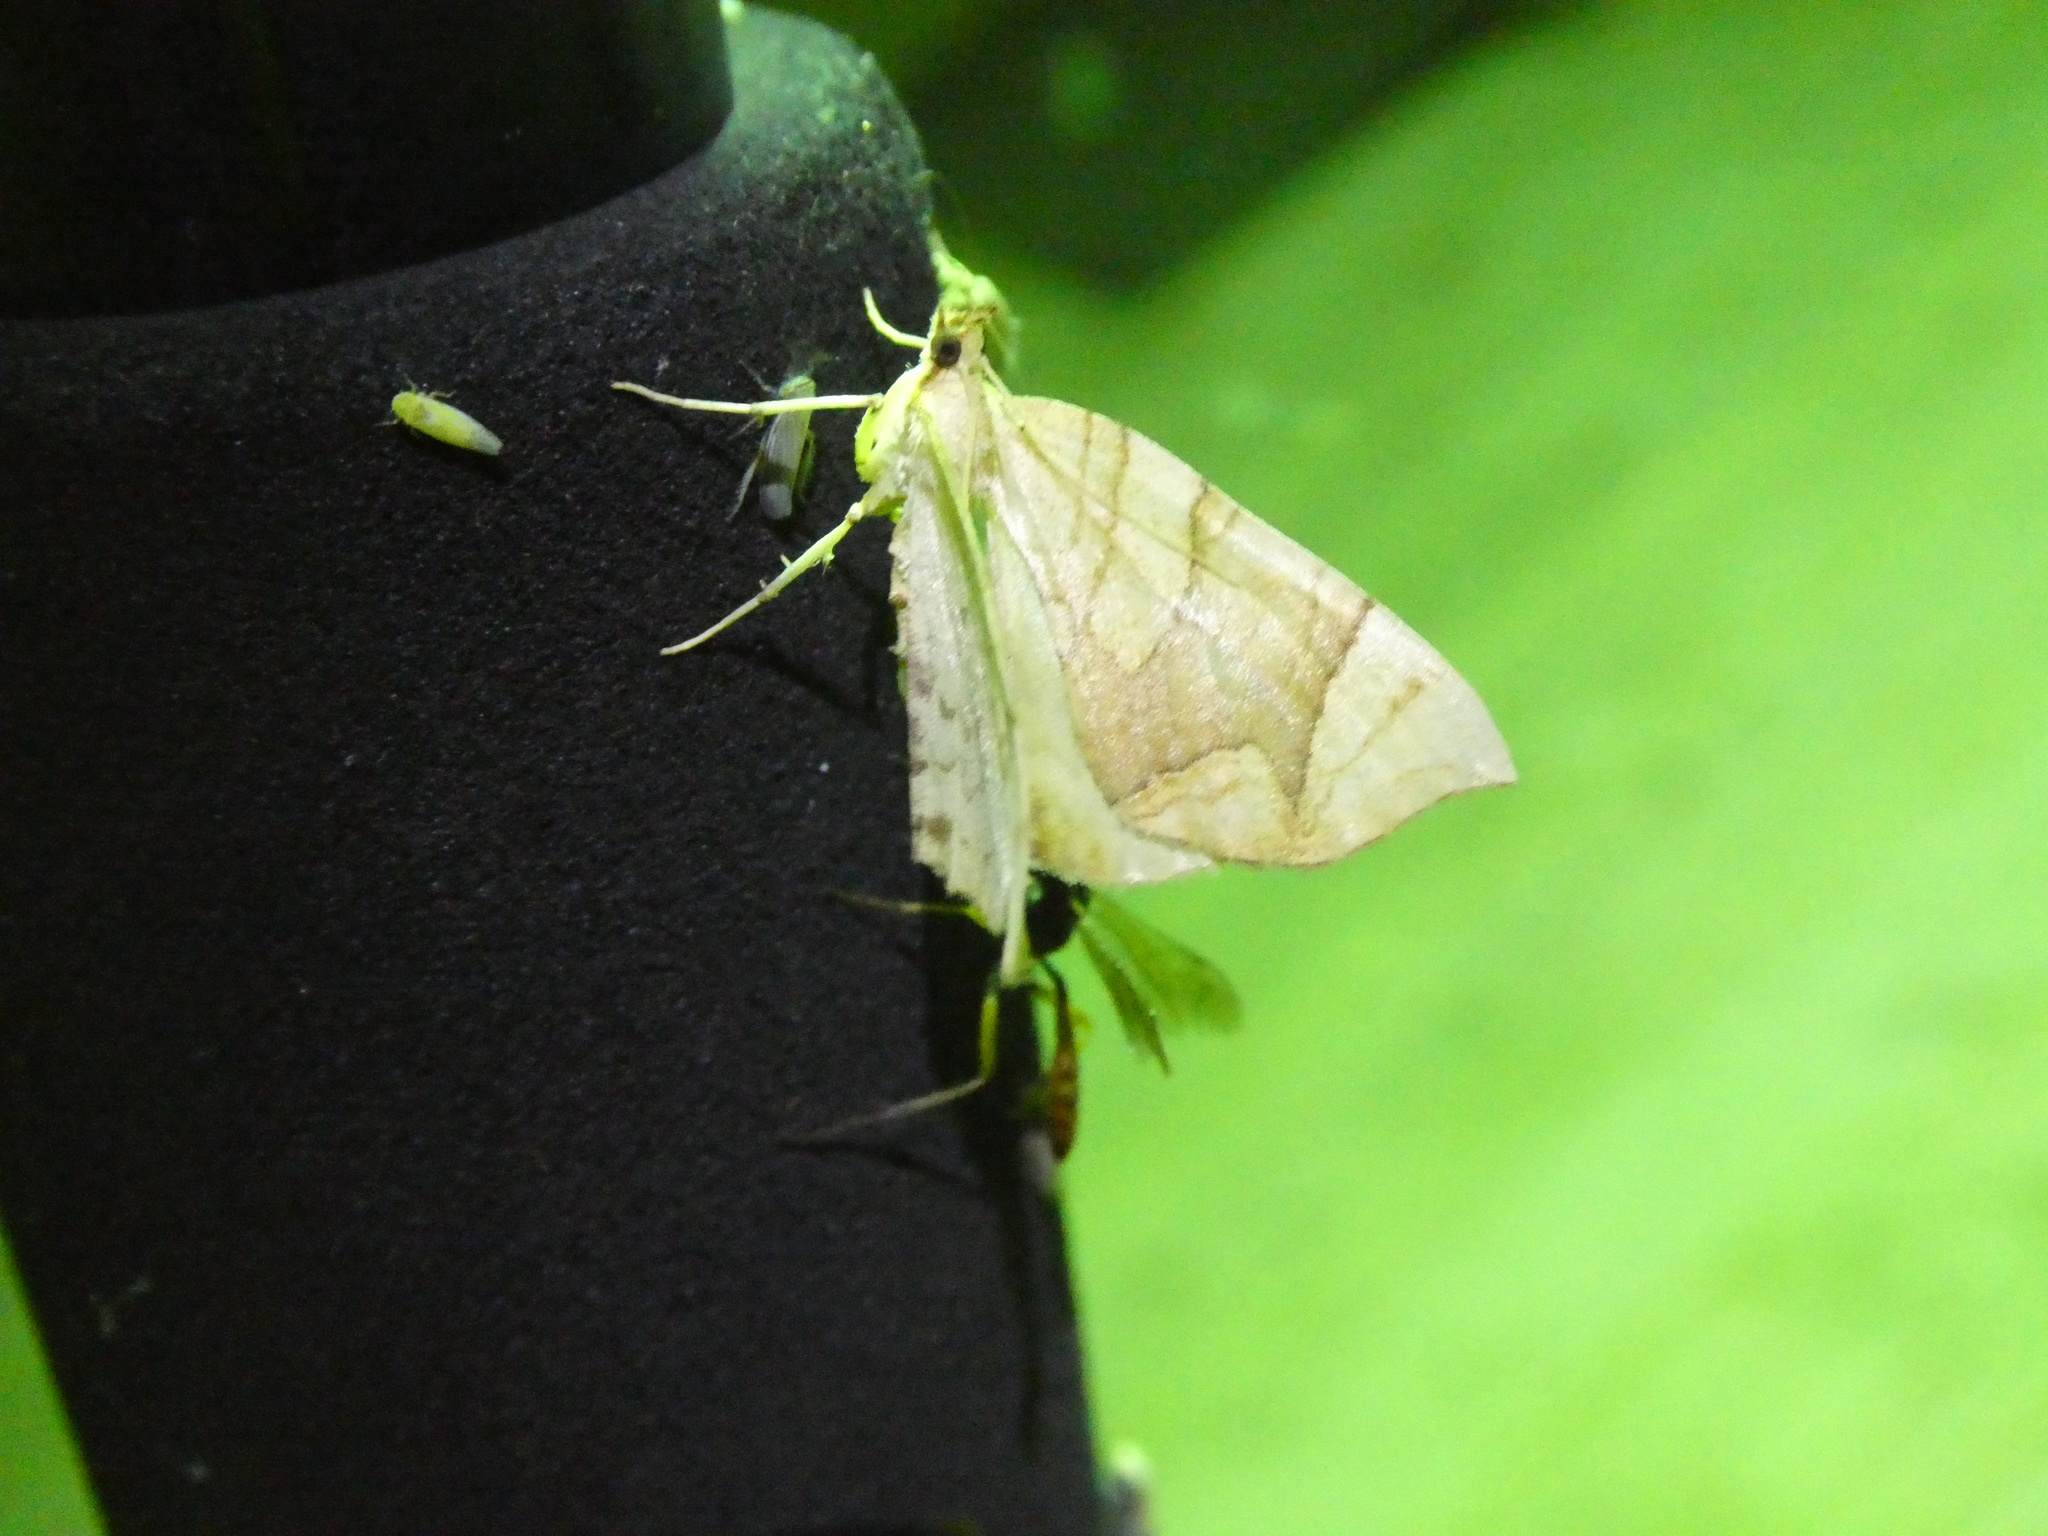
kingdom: Animalia
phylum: Arthropoda
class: Insecta
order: Lepidoptera
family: Geometridae
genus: Eulithis
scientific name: Eulithis
